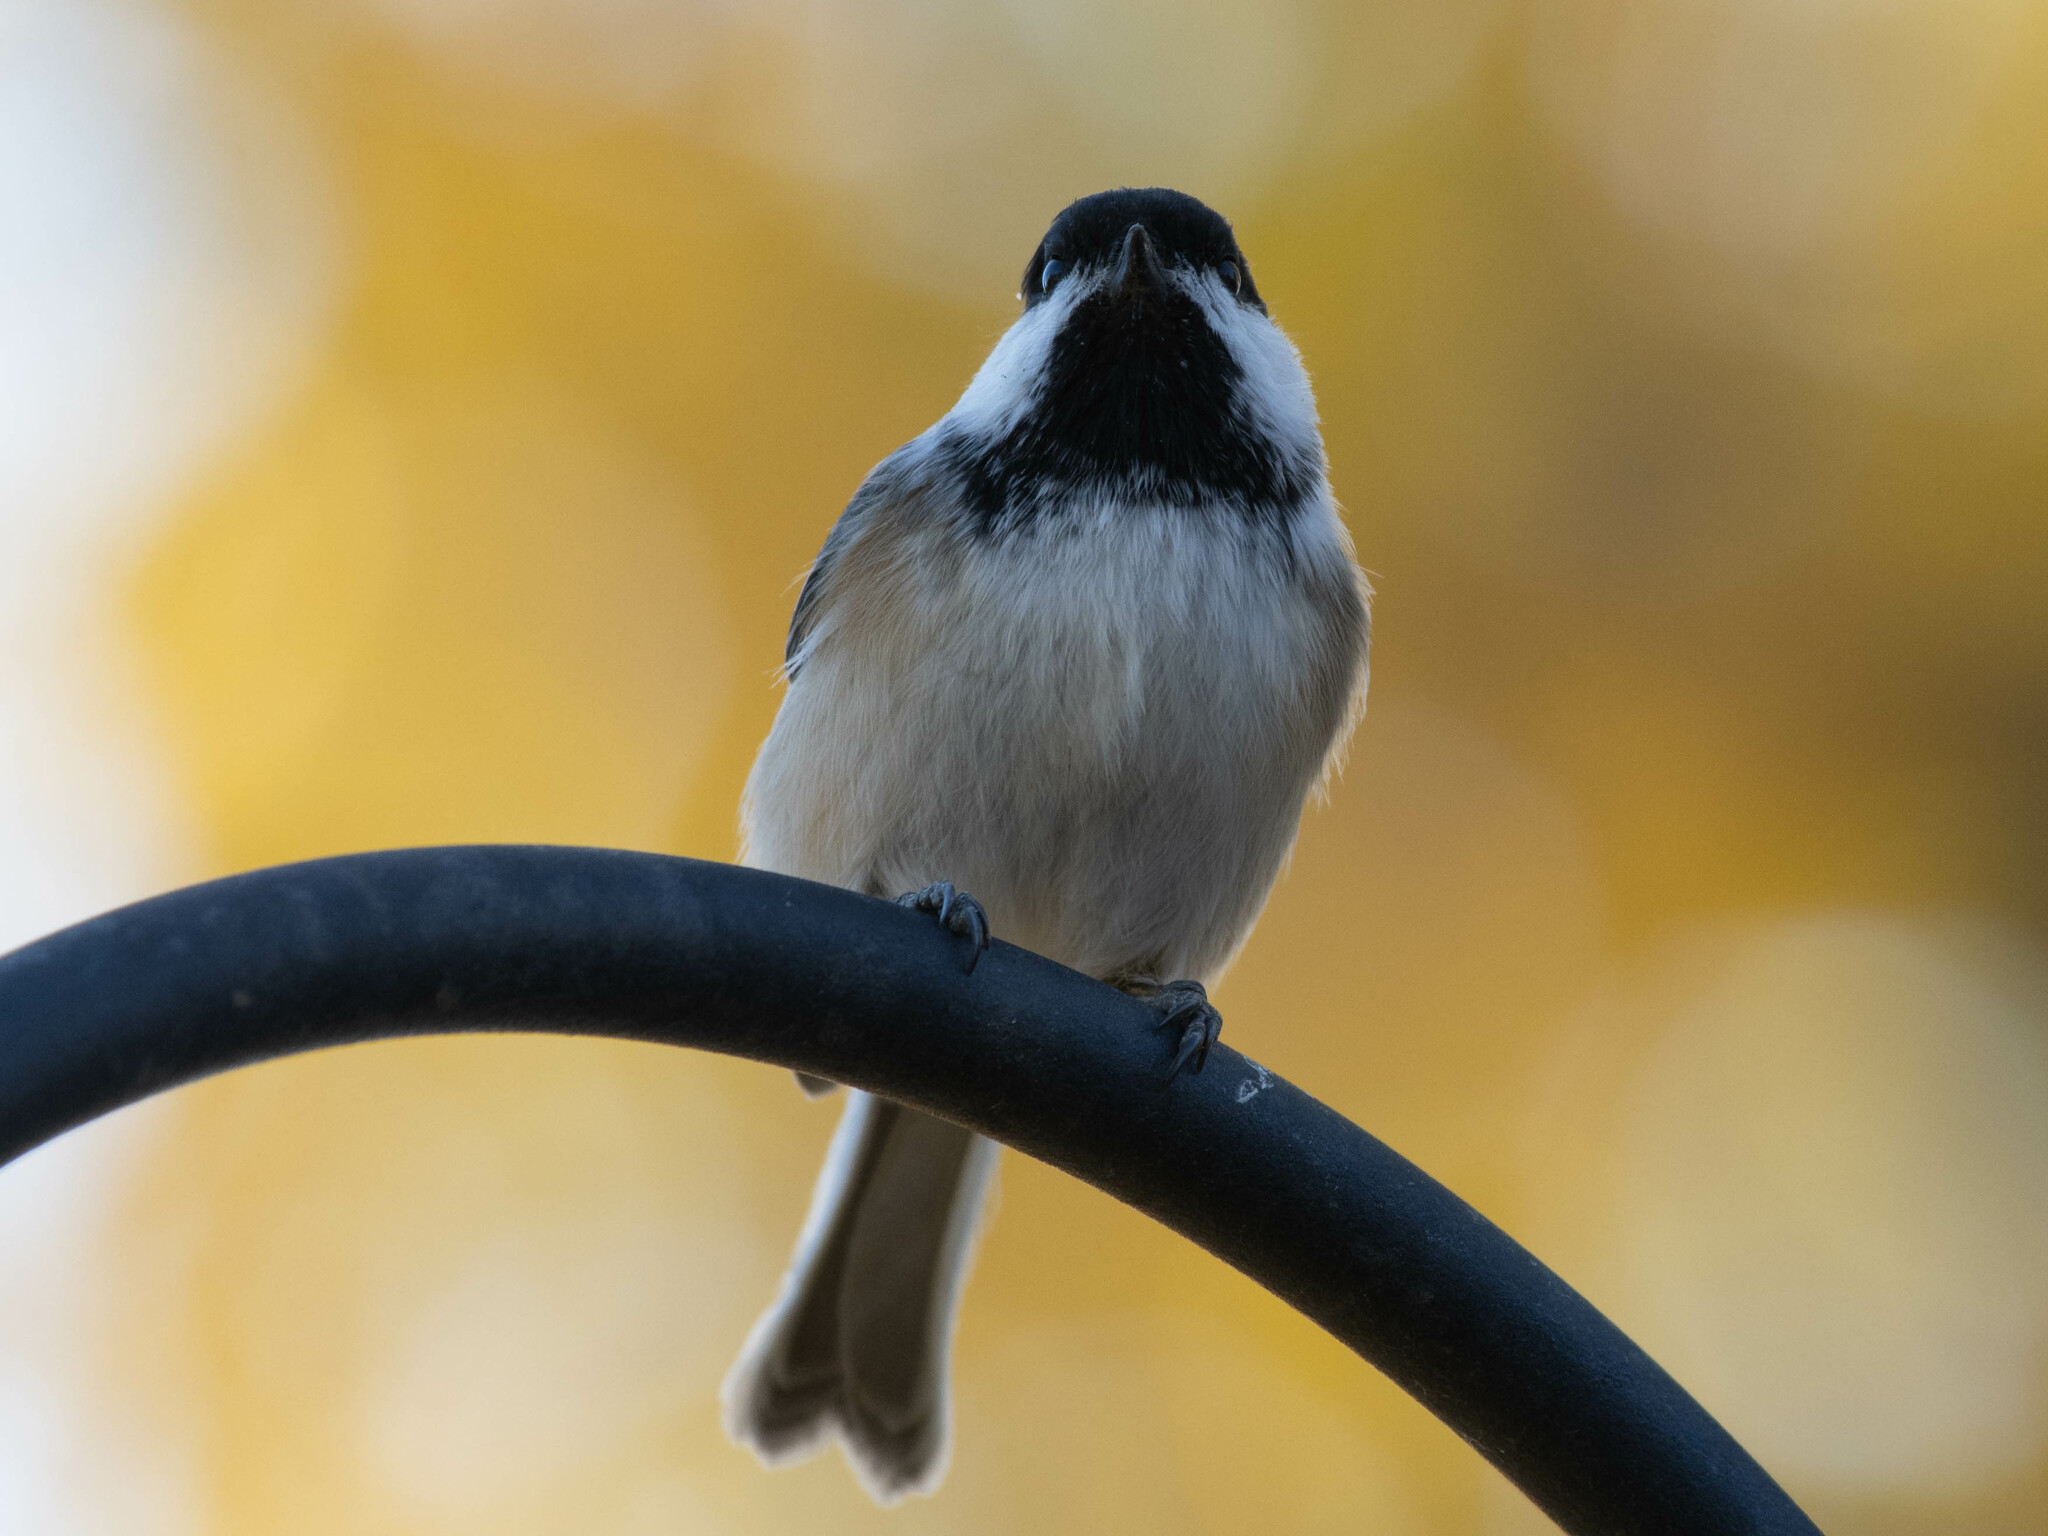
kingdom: Animalia
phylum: Chordata
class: Aves
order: Passeriformes
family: Paridae
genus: Poecile
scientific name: Poecile atricapillus
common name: Black-capped chickadee
